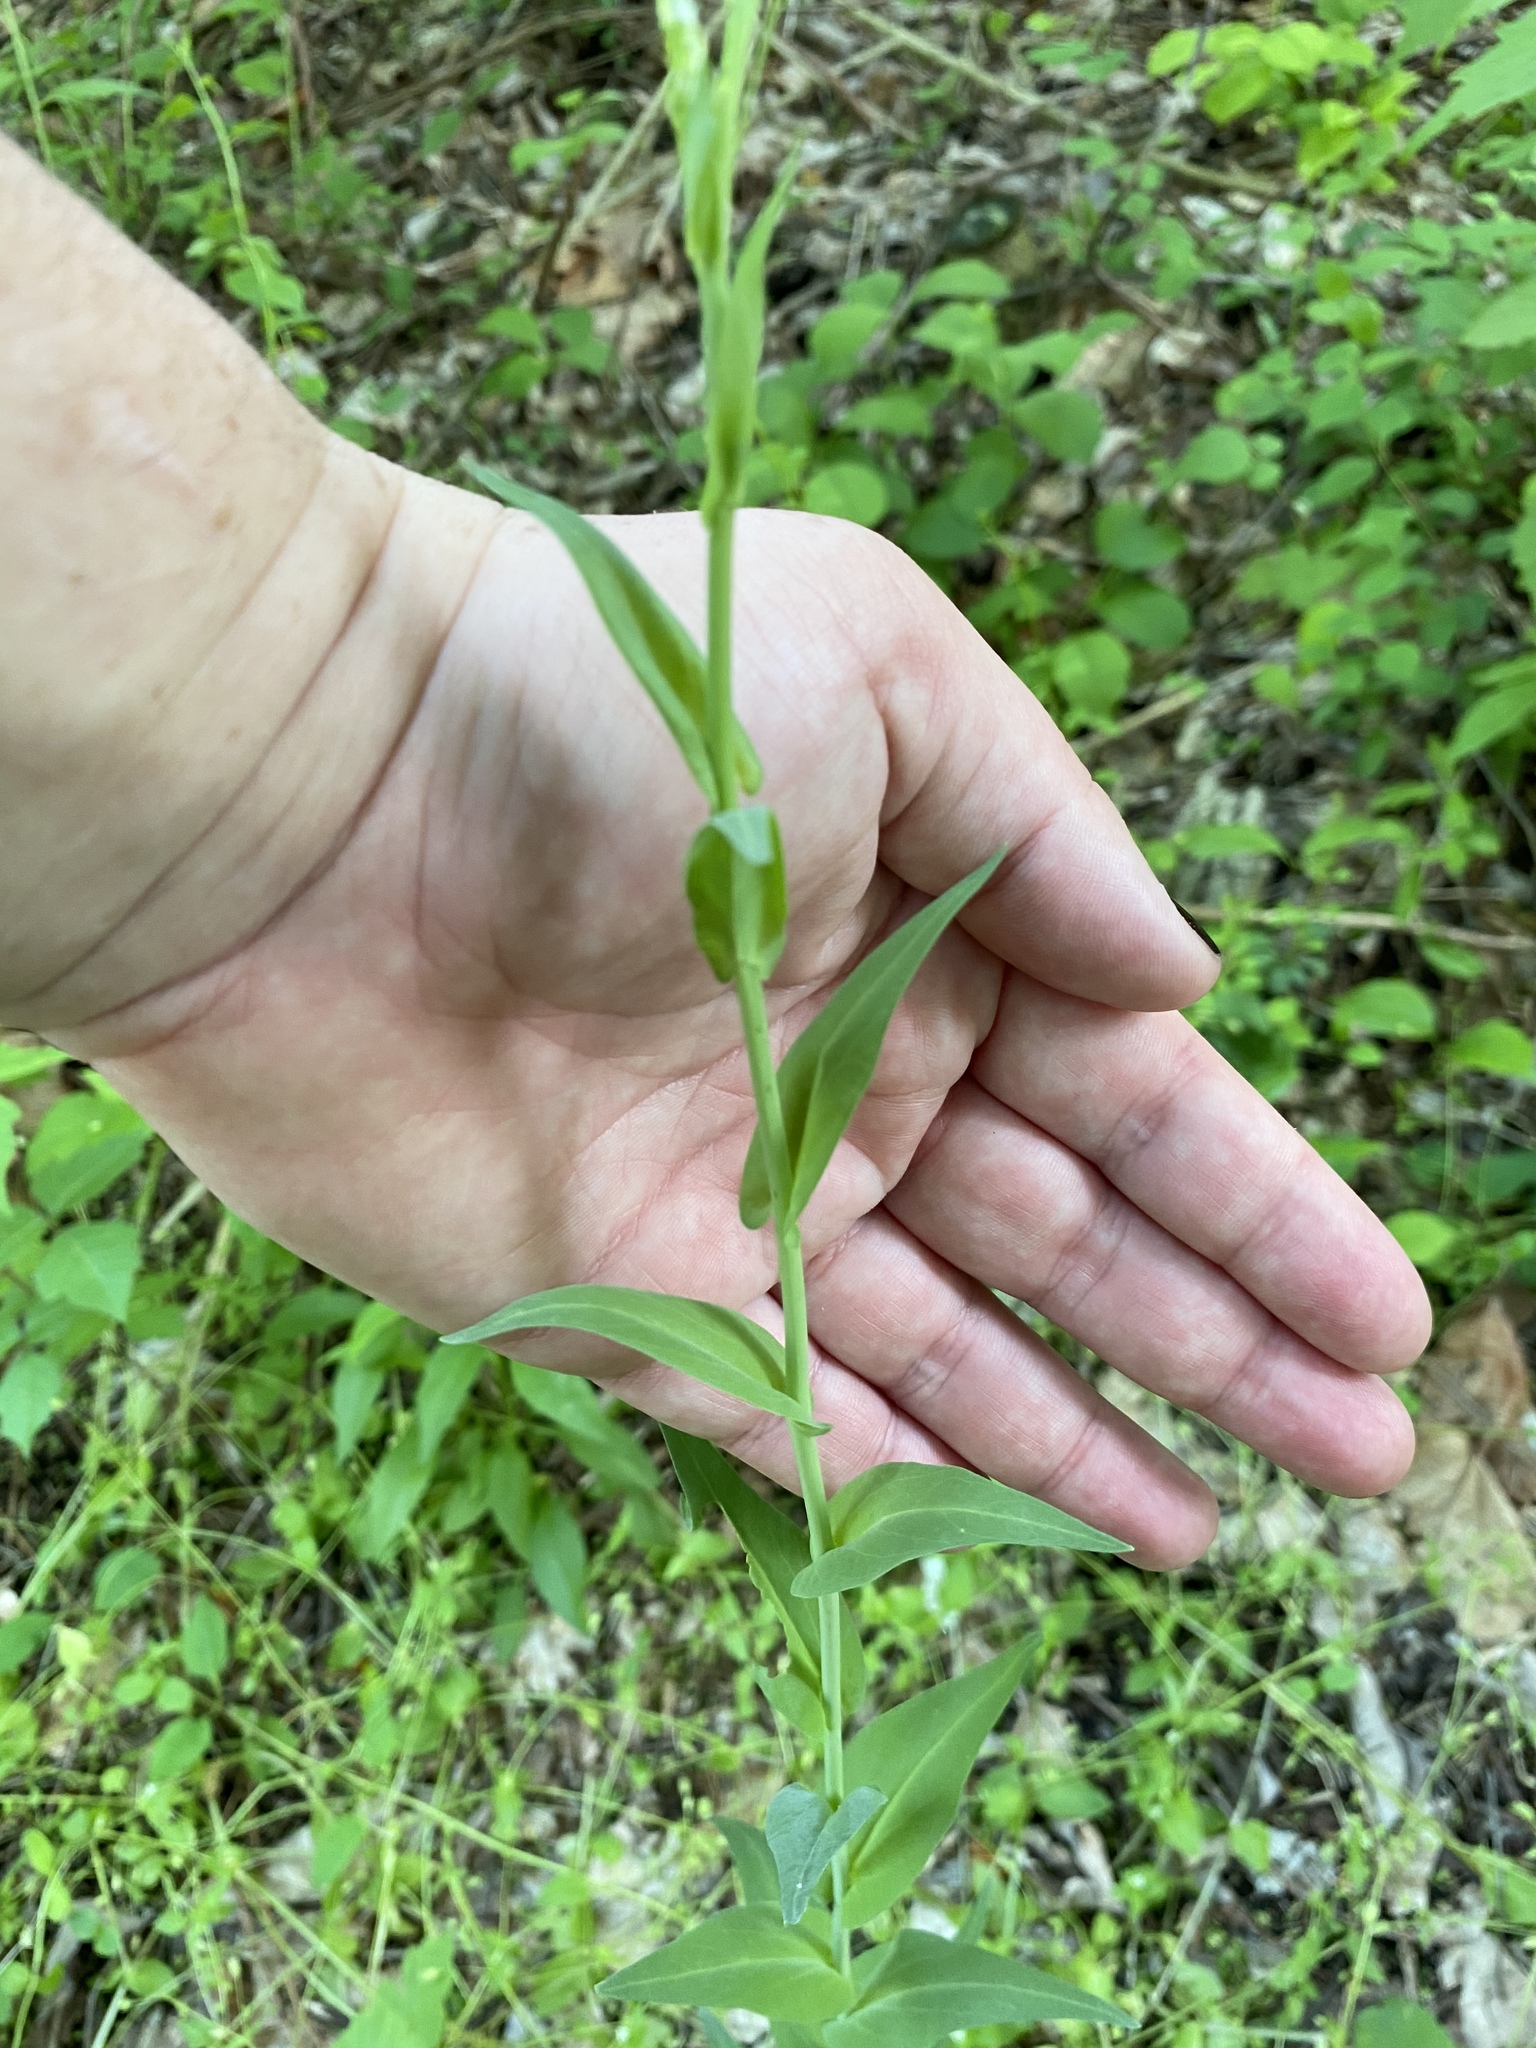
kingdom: Plantae
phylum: Tracheophyta
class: Magnoliopsida
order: Brassicales
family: Brassicaceae
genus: Turritis
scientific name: Turritis glabra
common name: Tower rockcress
